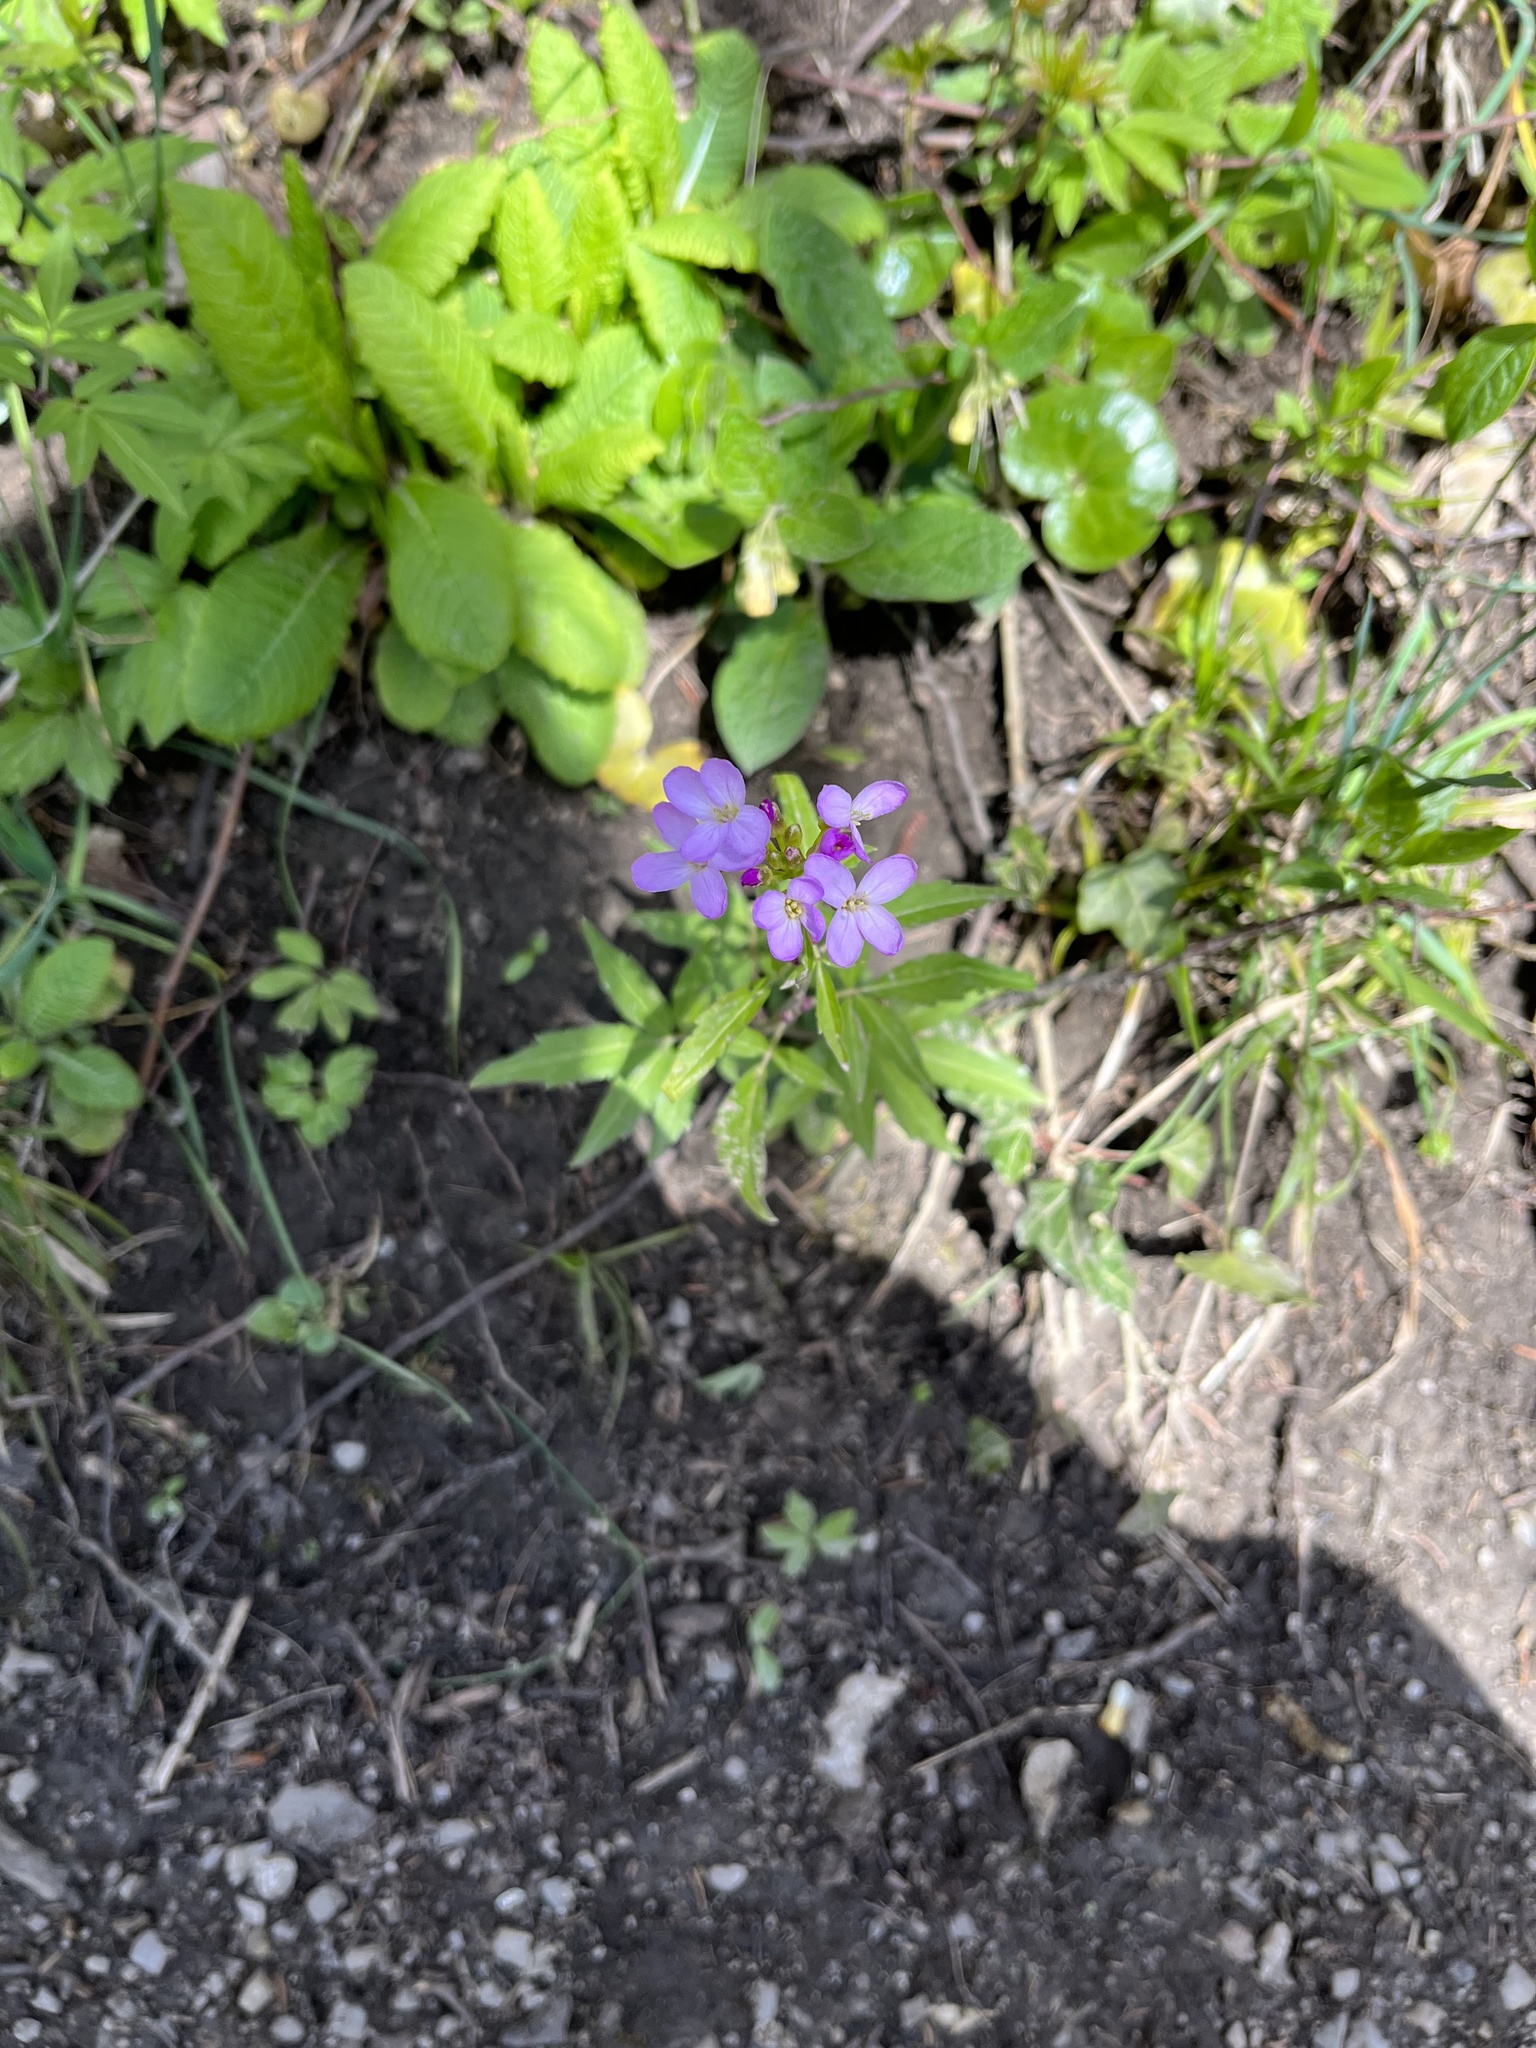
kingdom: Plantae
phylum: Tracheophyta
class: Magnoliopsida
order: Brassicales
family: Brassicaceae
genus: Cardamine
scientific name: Cardamine bulbifera
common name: Coralroot bittercress
